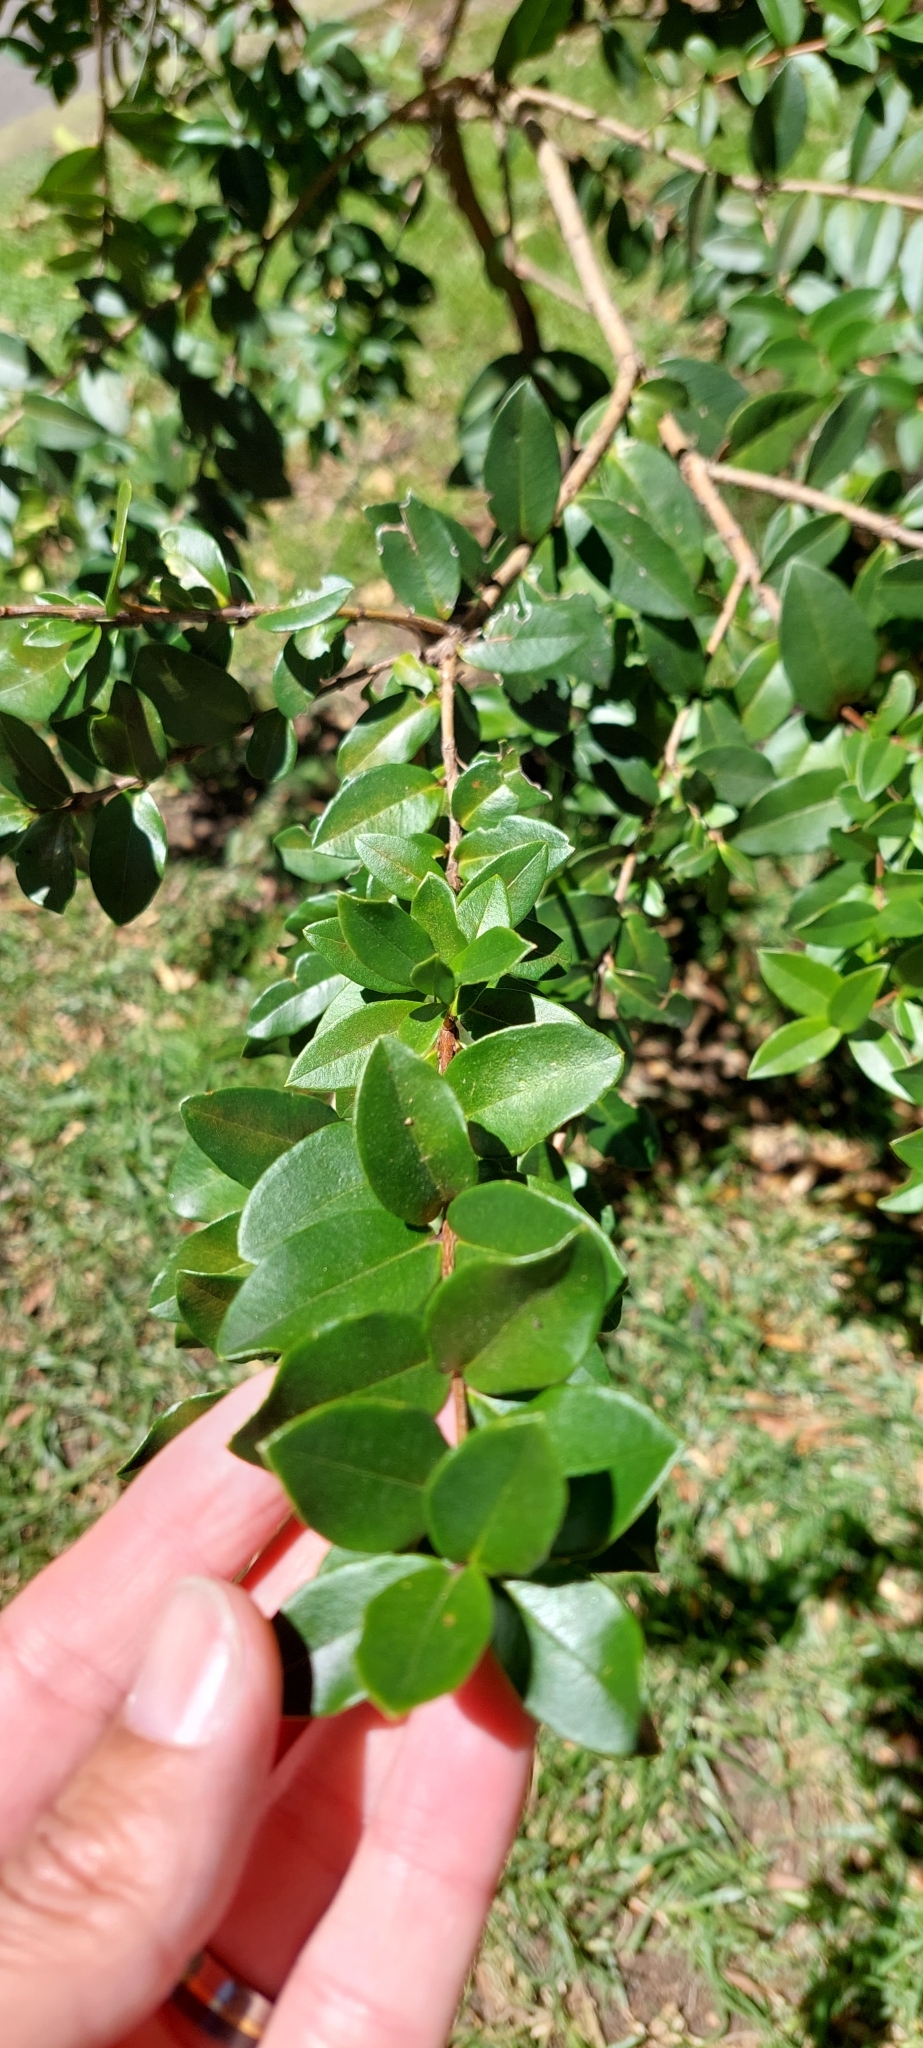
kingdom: Plantae
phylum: Tracheophyta
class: Magnoliopsida
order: Myrtales
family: Myrtaceae
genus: Myrcianthes
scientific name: Myrcianthes leucoxyla
